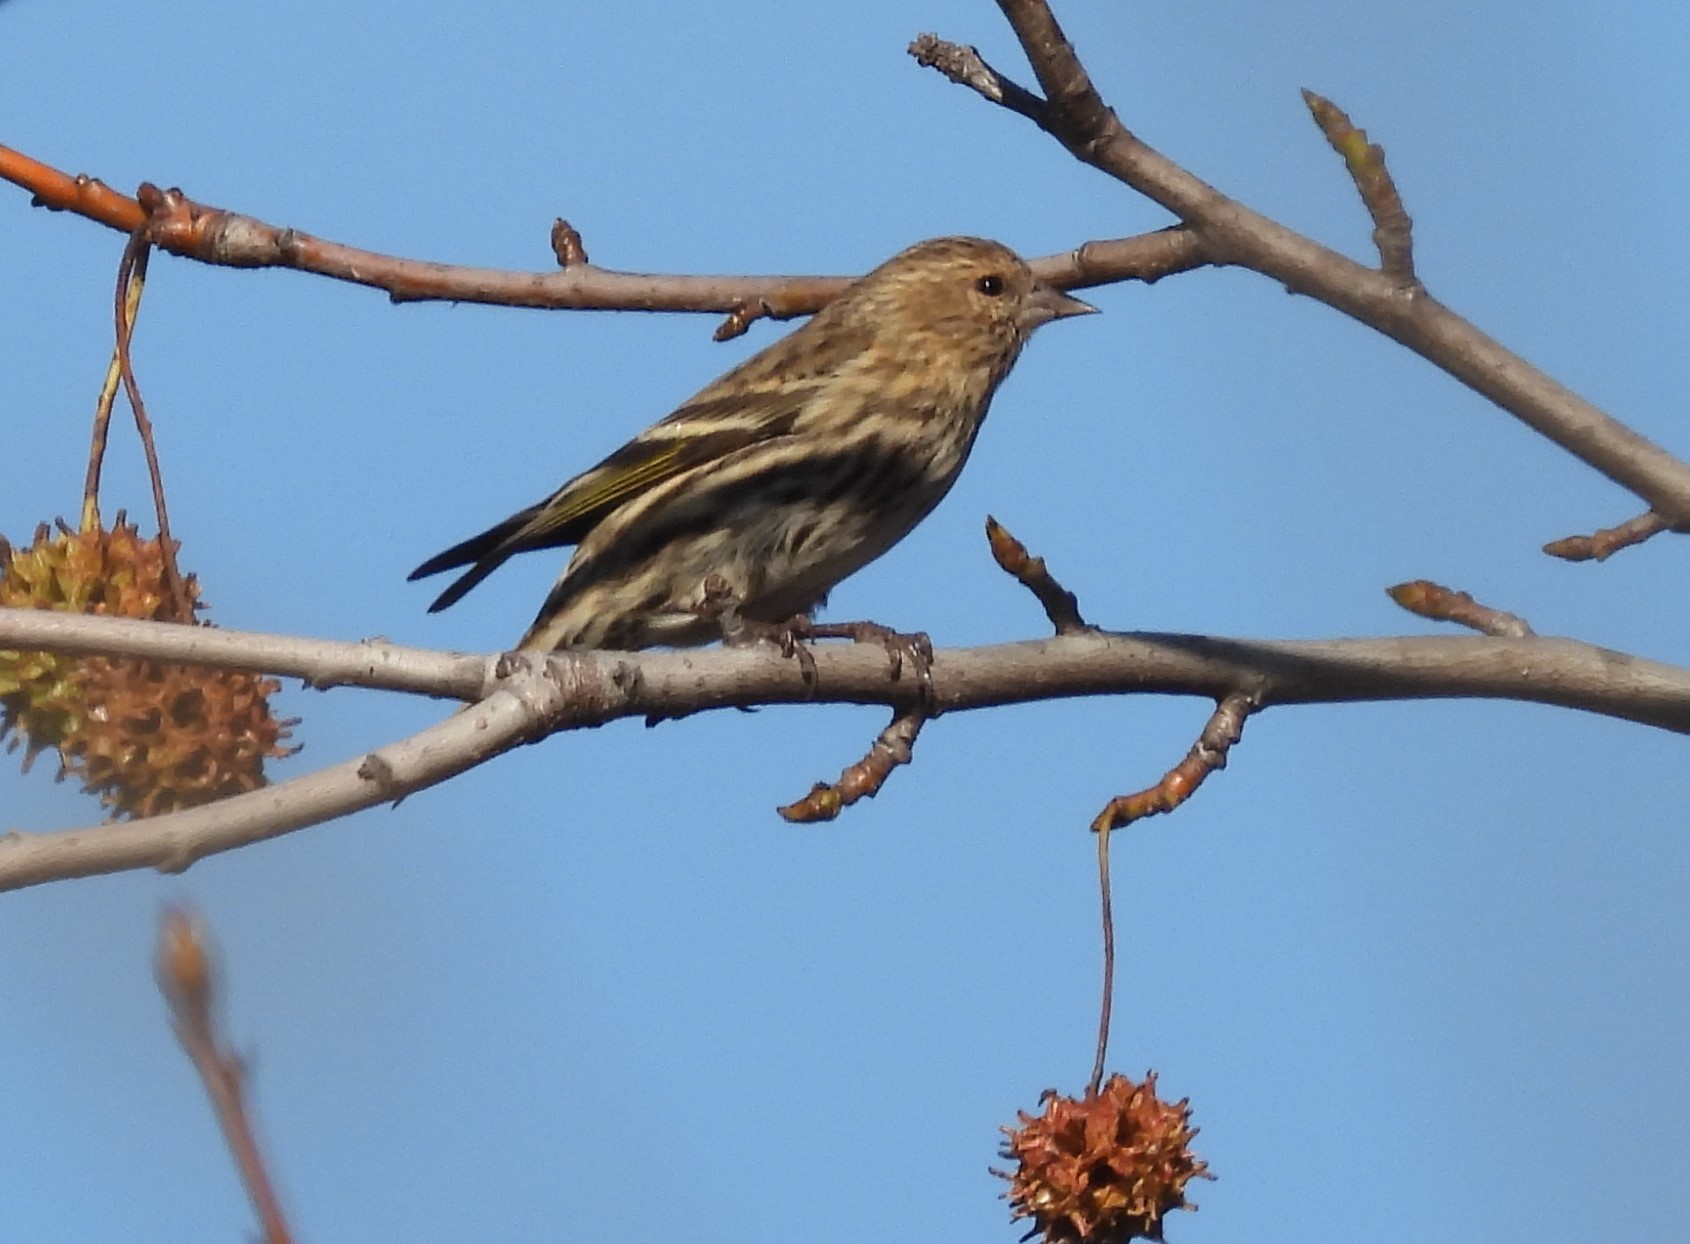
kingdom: Animalia
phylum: Chordata
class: Aves
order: Passeriformes
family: Fringillidae
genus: Spinus
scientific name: Spinus pinus
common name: Pine siskin
